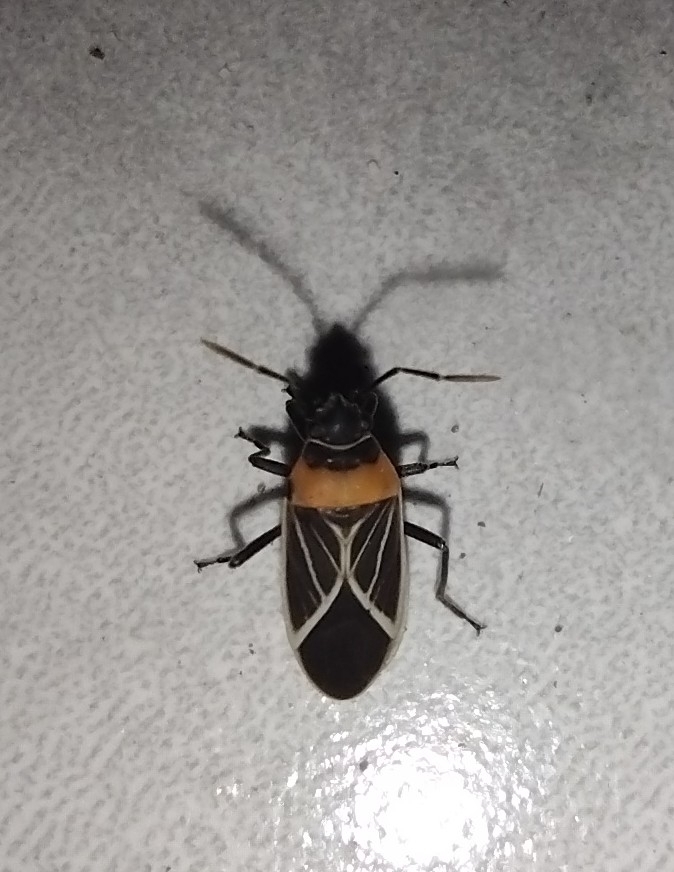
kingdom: Animalia
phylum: Arthropoda
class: Insecta
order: Hemiptera
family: Lygaeidae
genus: Ochrimnus
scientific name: Ochrimnus laevus
